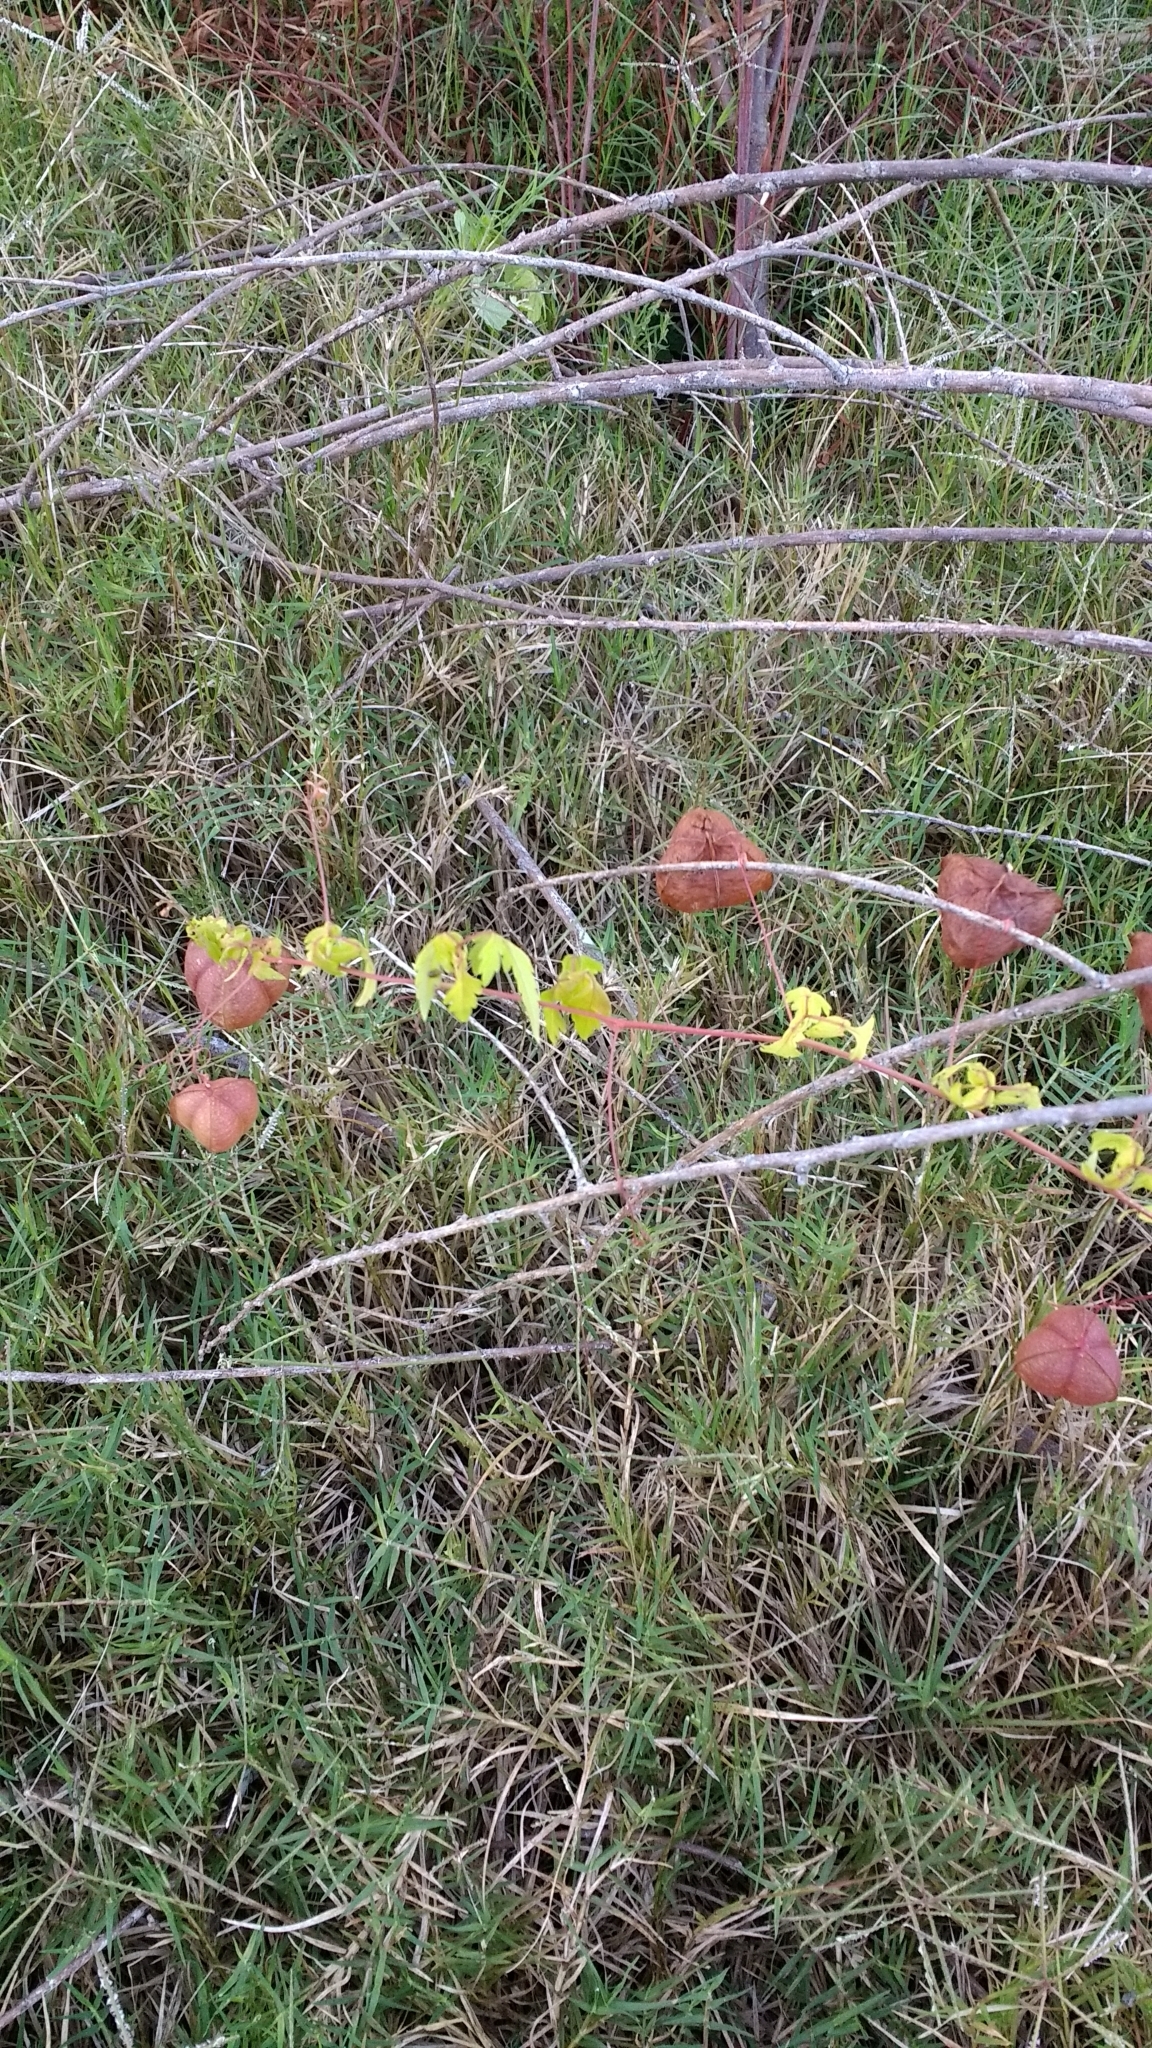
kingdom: Plantae
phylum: Tracheophyta
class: Magnoliopsida
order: Sapindales
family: Sapindaceae
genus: Cardiospermum
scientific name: Cardiospermum halicacabum
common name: Balloon vine
